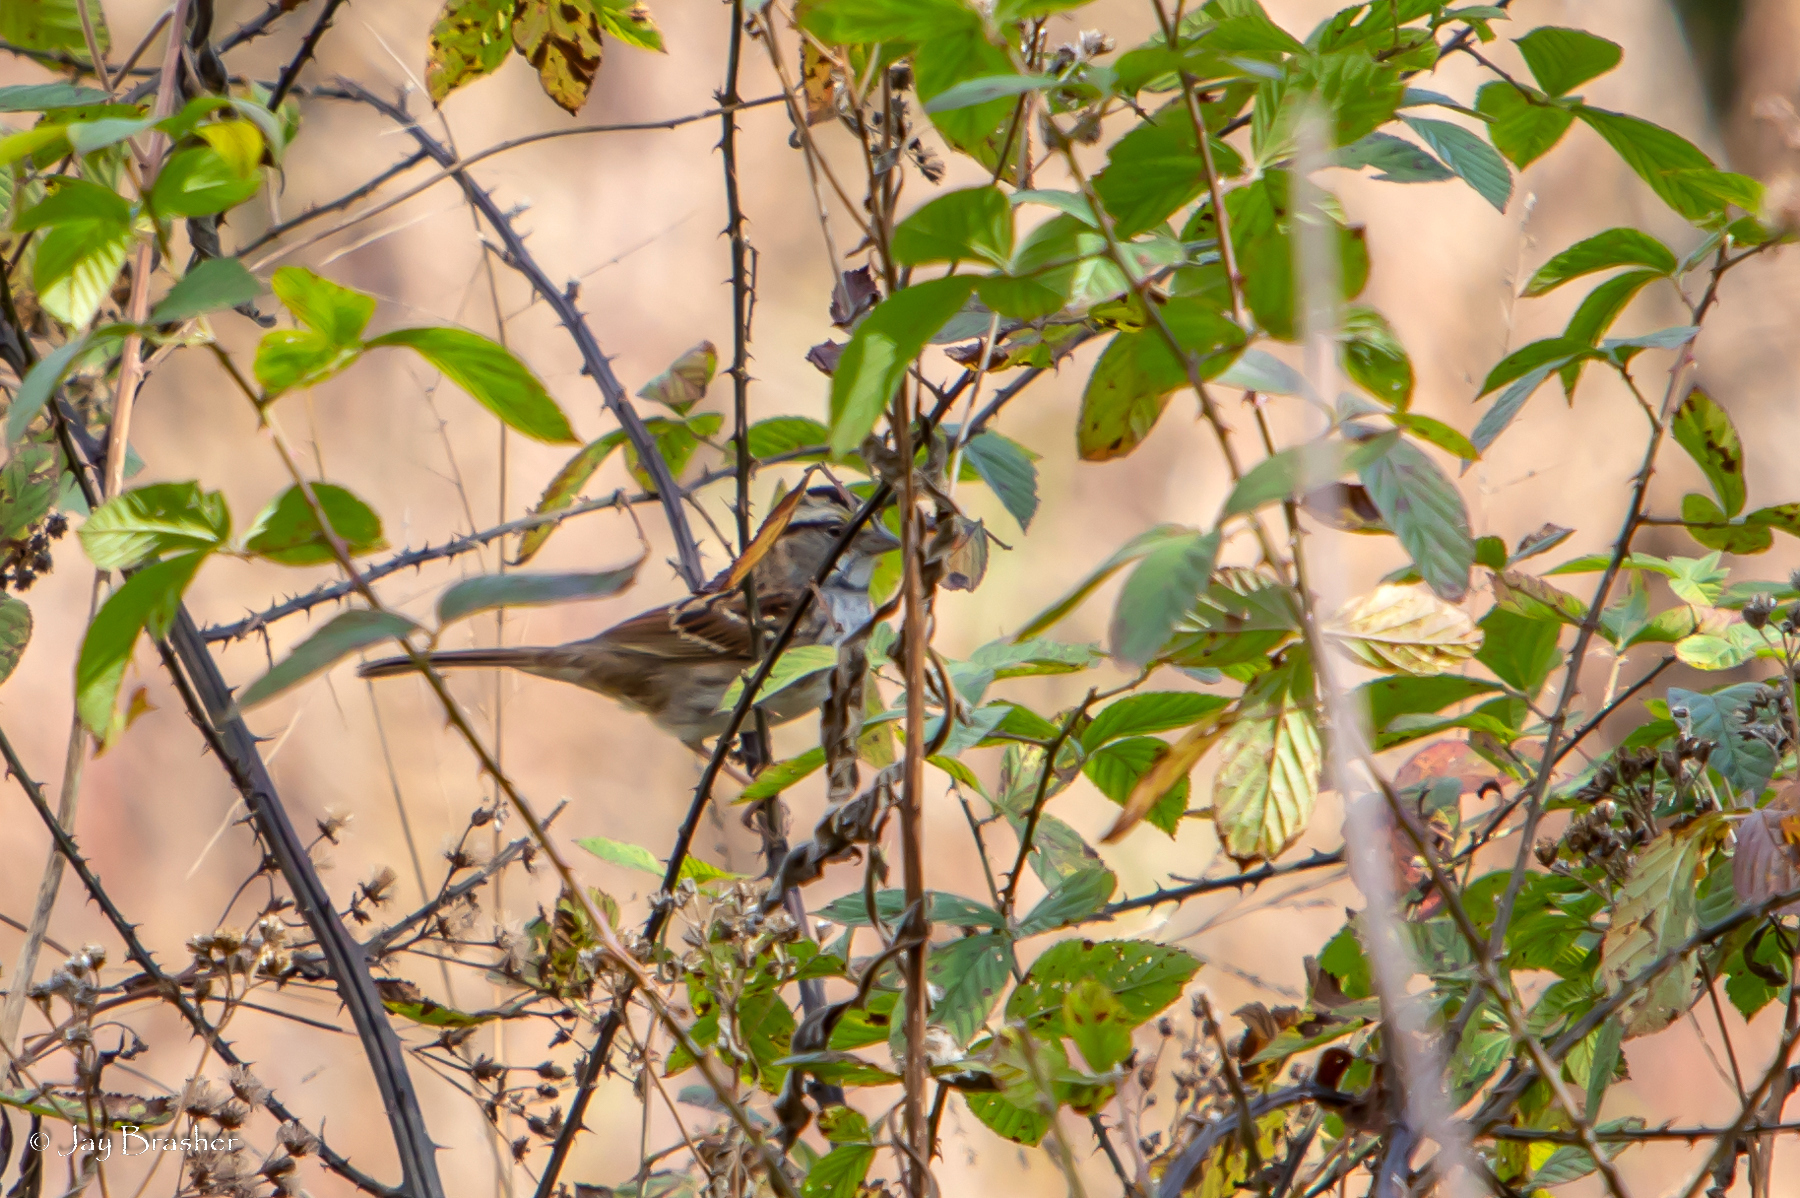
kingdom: Animalia
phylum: Chordata
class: Aves
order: Passeriformes
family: Passerellidae
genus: Zonotrichia
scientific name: Zonotrichia albicollis
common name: White-throated sparrow
